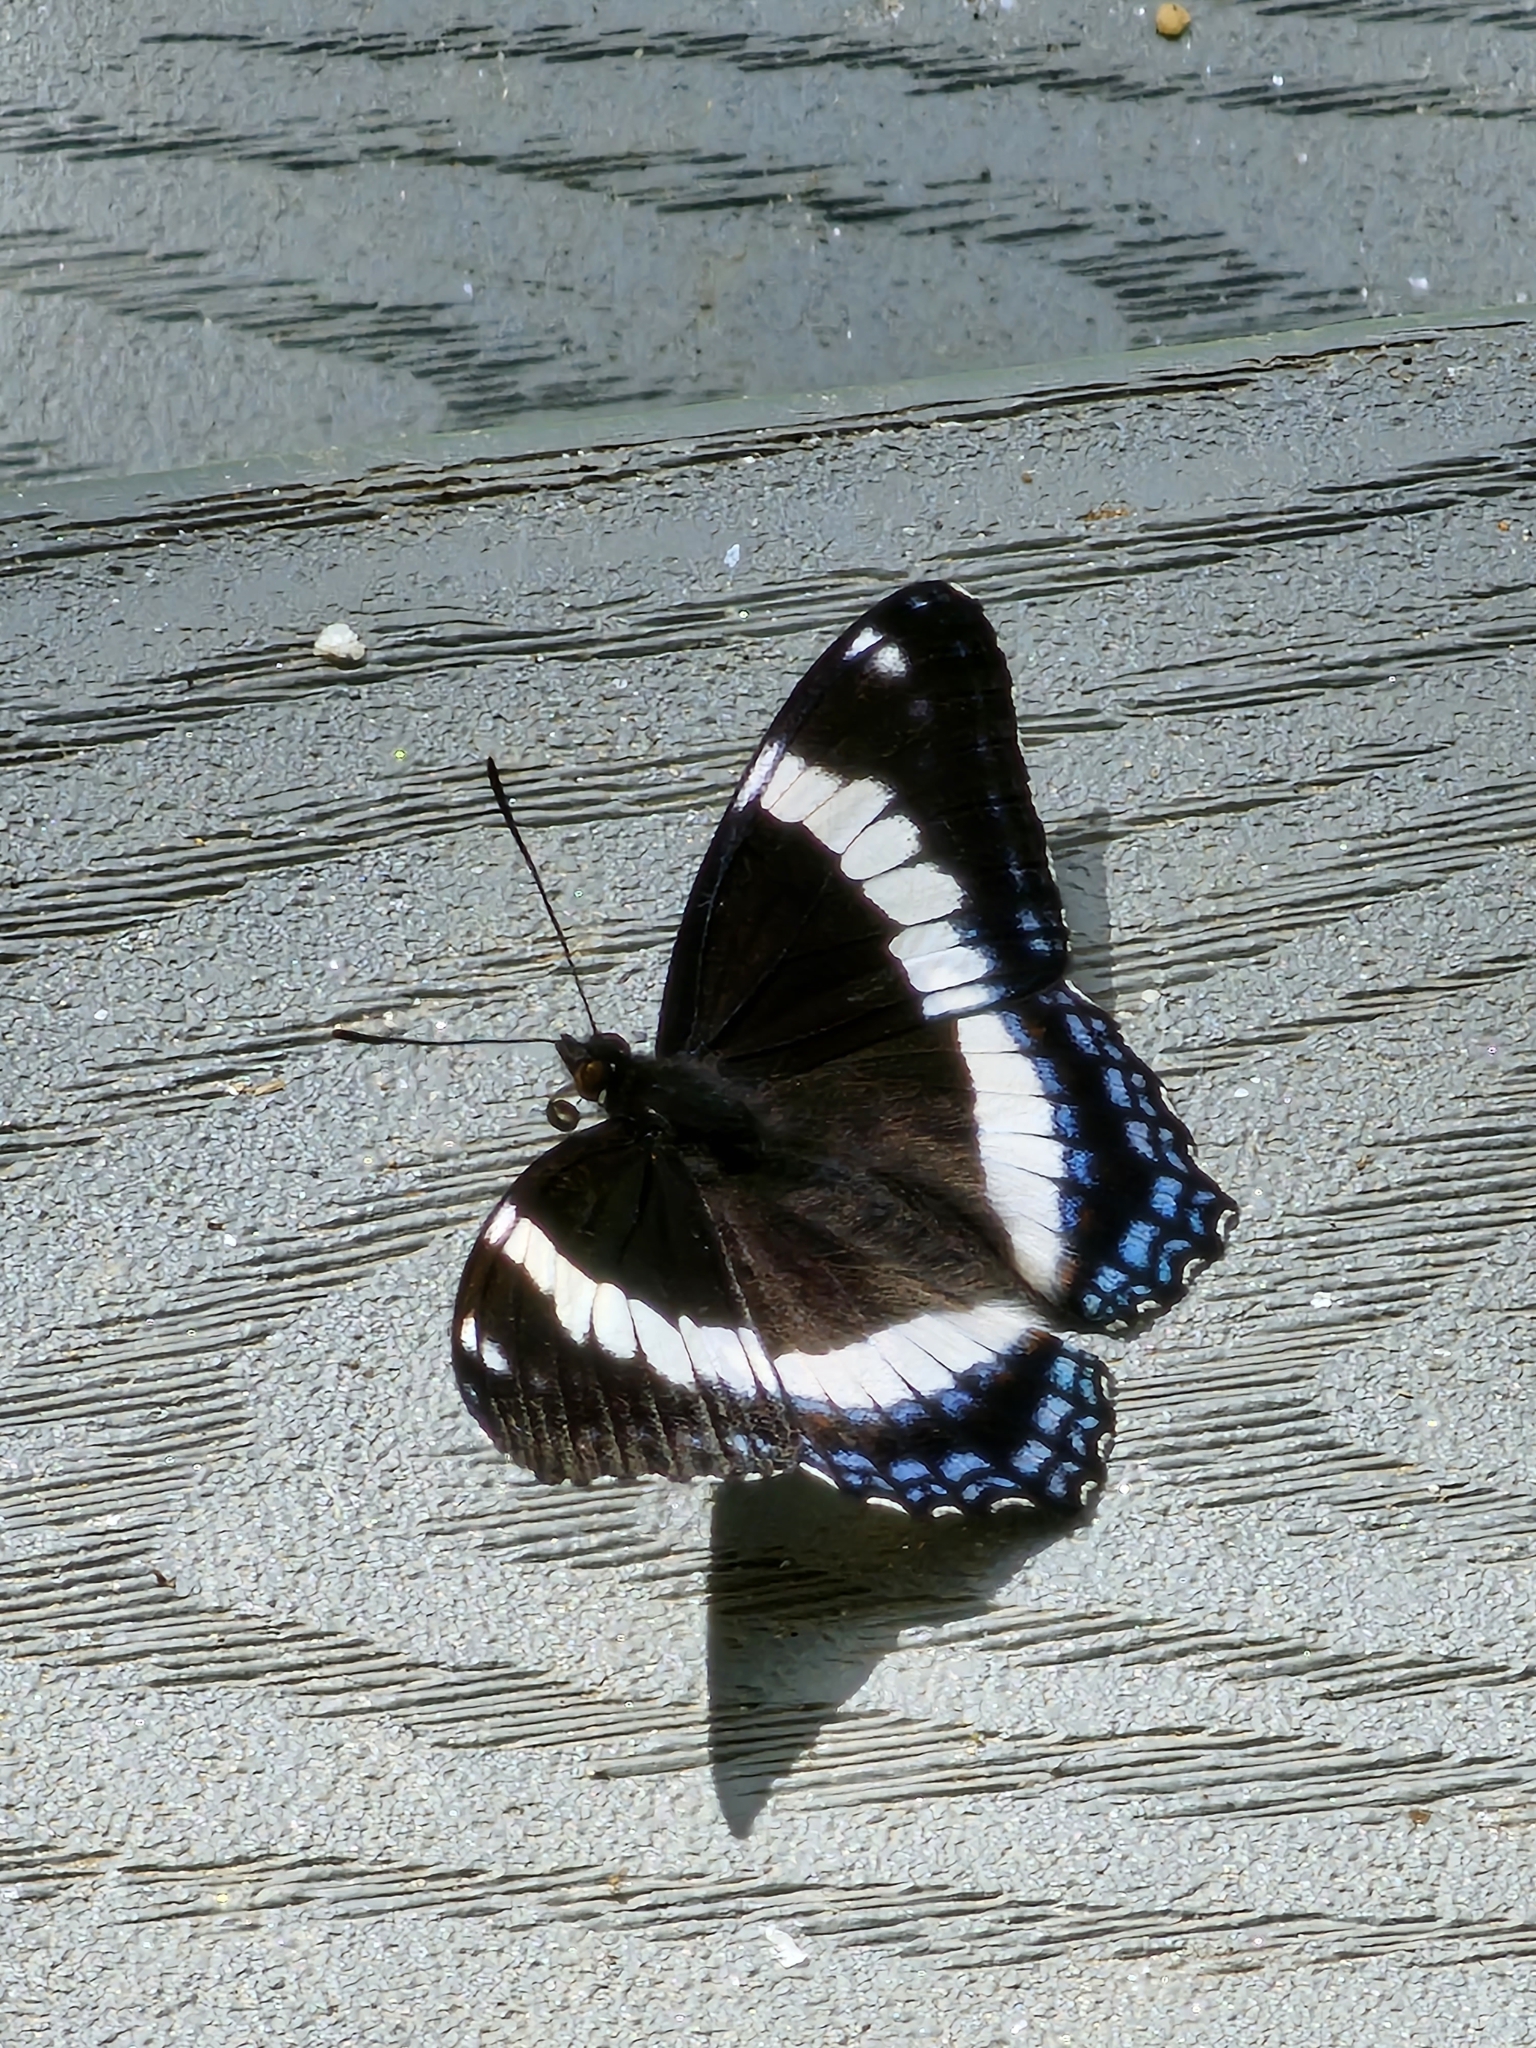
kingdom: Animalia
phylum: Arthropoda
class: Insecta
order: Lepidoptera
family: Nymphalidae
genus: Limenitis
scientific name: Limenitis arthemis
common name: Red-spotted admiral
